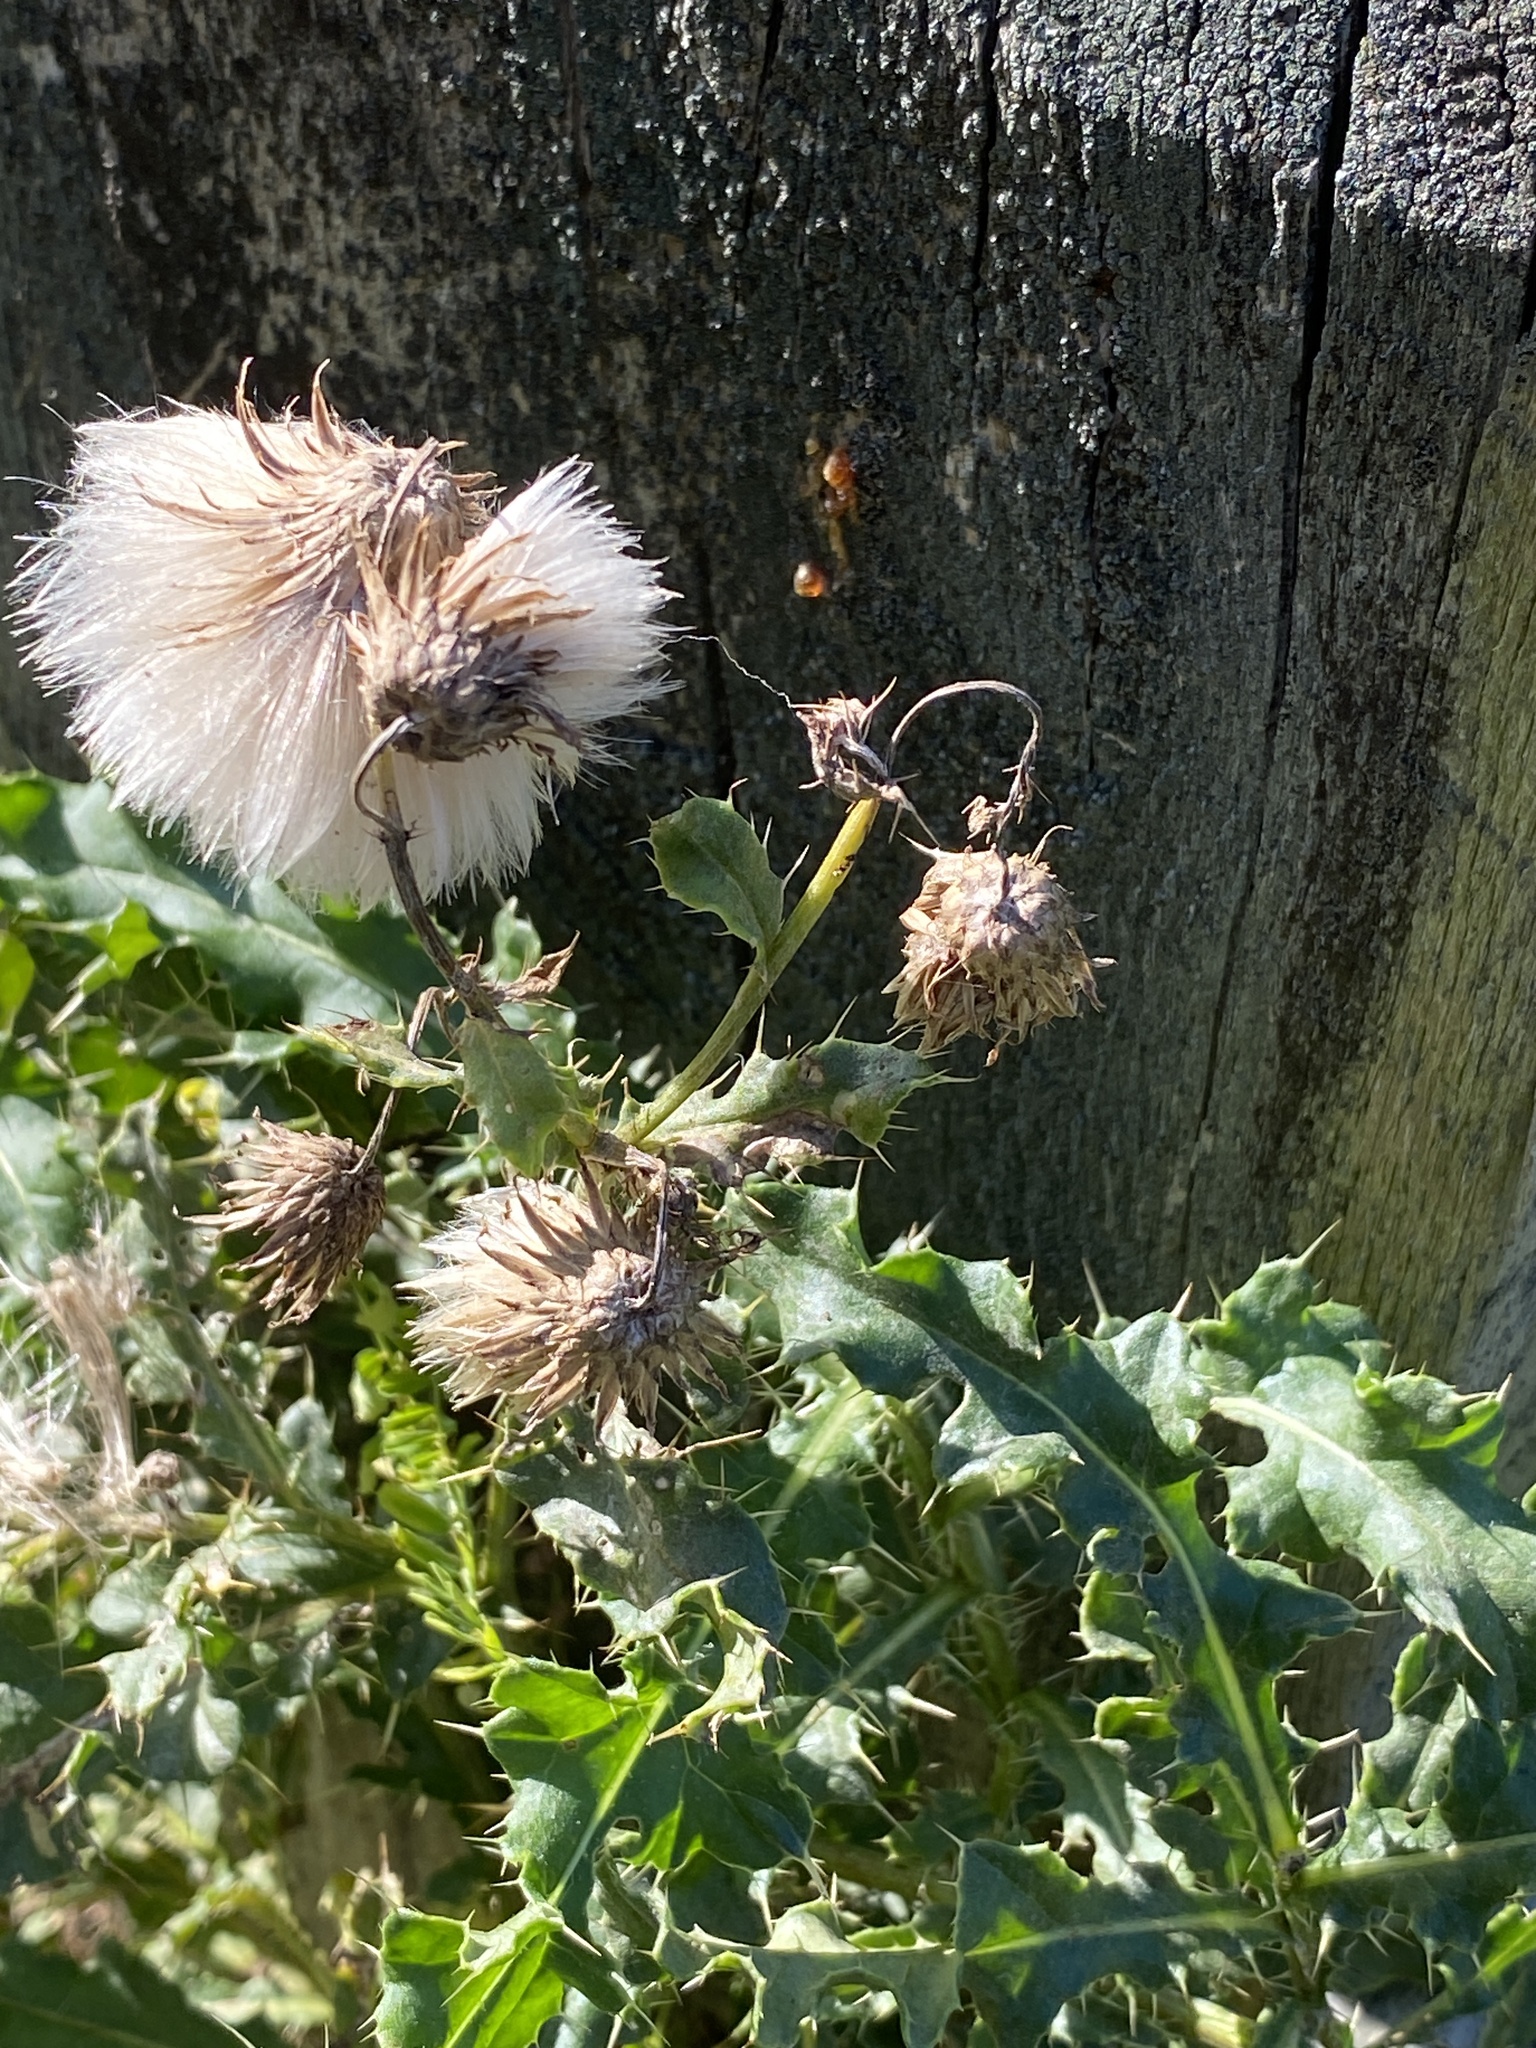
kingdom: Plantae
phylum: Tracheophyta
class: Magnoliopsida
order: Asterales
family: Asteraceae
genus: Cirsium
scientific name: Cirsium arvense
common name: Creeping thistle
